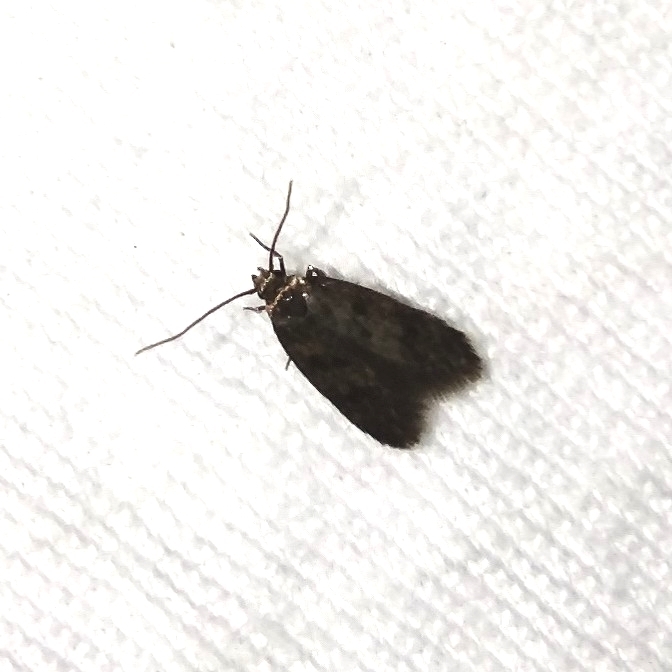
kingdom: Animalia
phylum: Arthropoda
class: Insecta
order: Lepidoptera
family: Oecophoridae
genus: Borkhausenia
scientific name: Borkhausenia fuscescens
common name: Small dingy tubic
